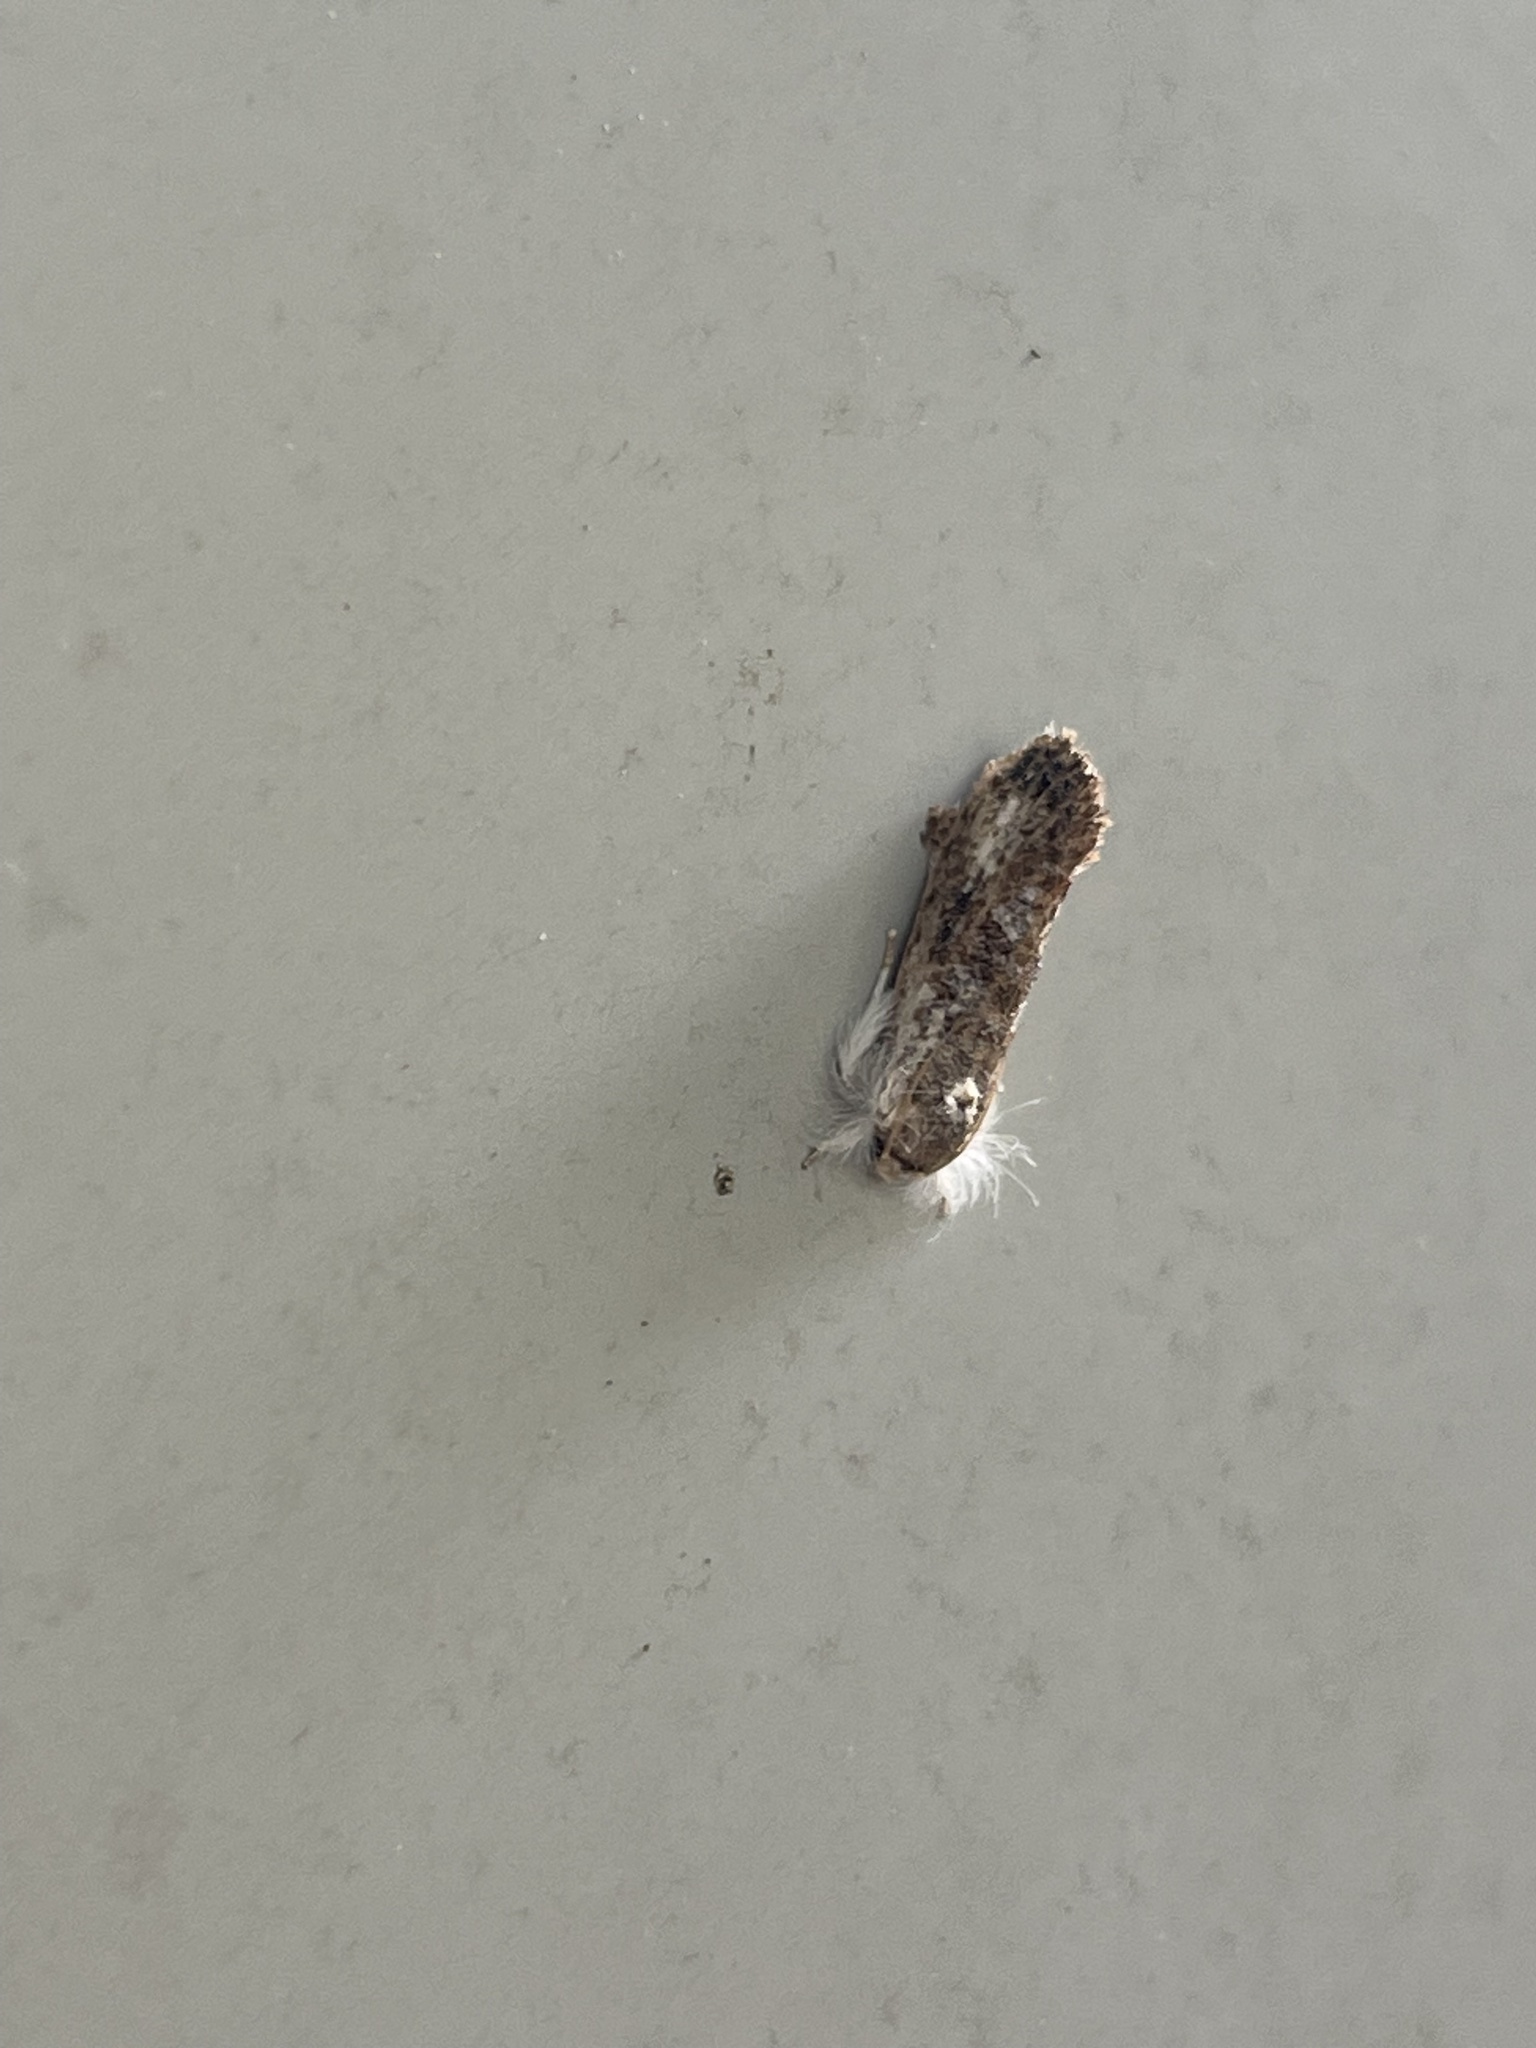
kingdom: Animalia
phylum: Arthropoda
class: Insecta
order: Lepidoptera
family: Tineidae
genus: Acrolophus
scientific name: Acrolophus mycetophagus
